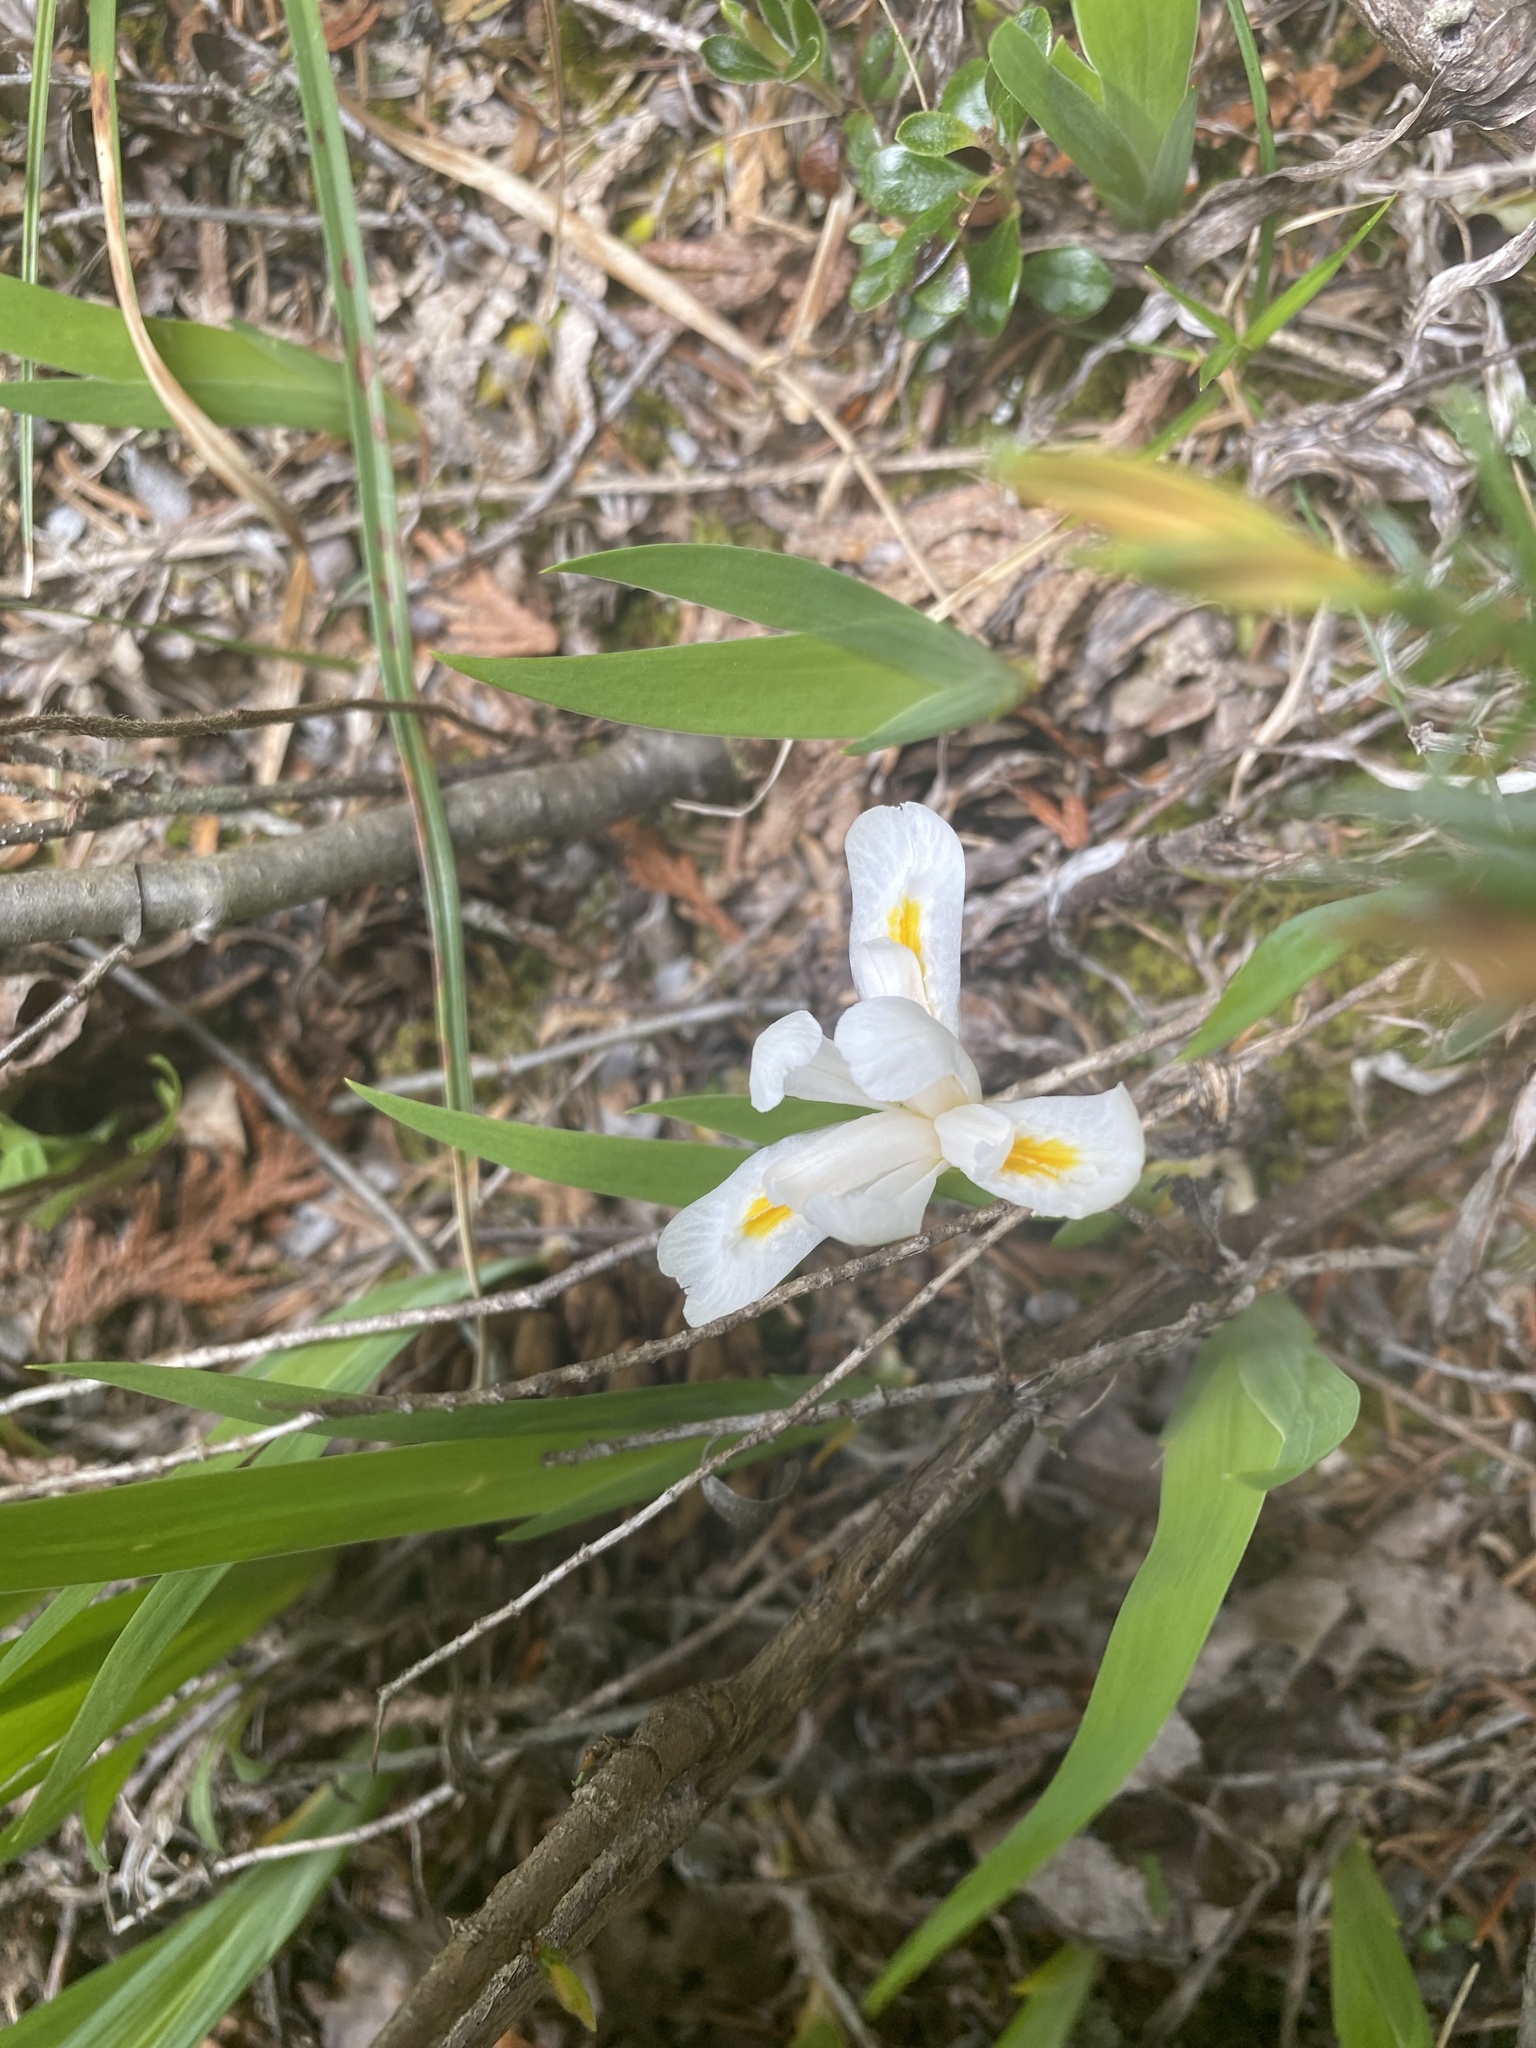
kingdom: Plantae
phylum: Tracheophyta
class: Liliopsida
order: Asparagales
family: Iridaceae
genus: Iris
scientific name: Iris lacustris
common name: Dwarf lake iris
